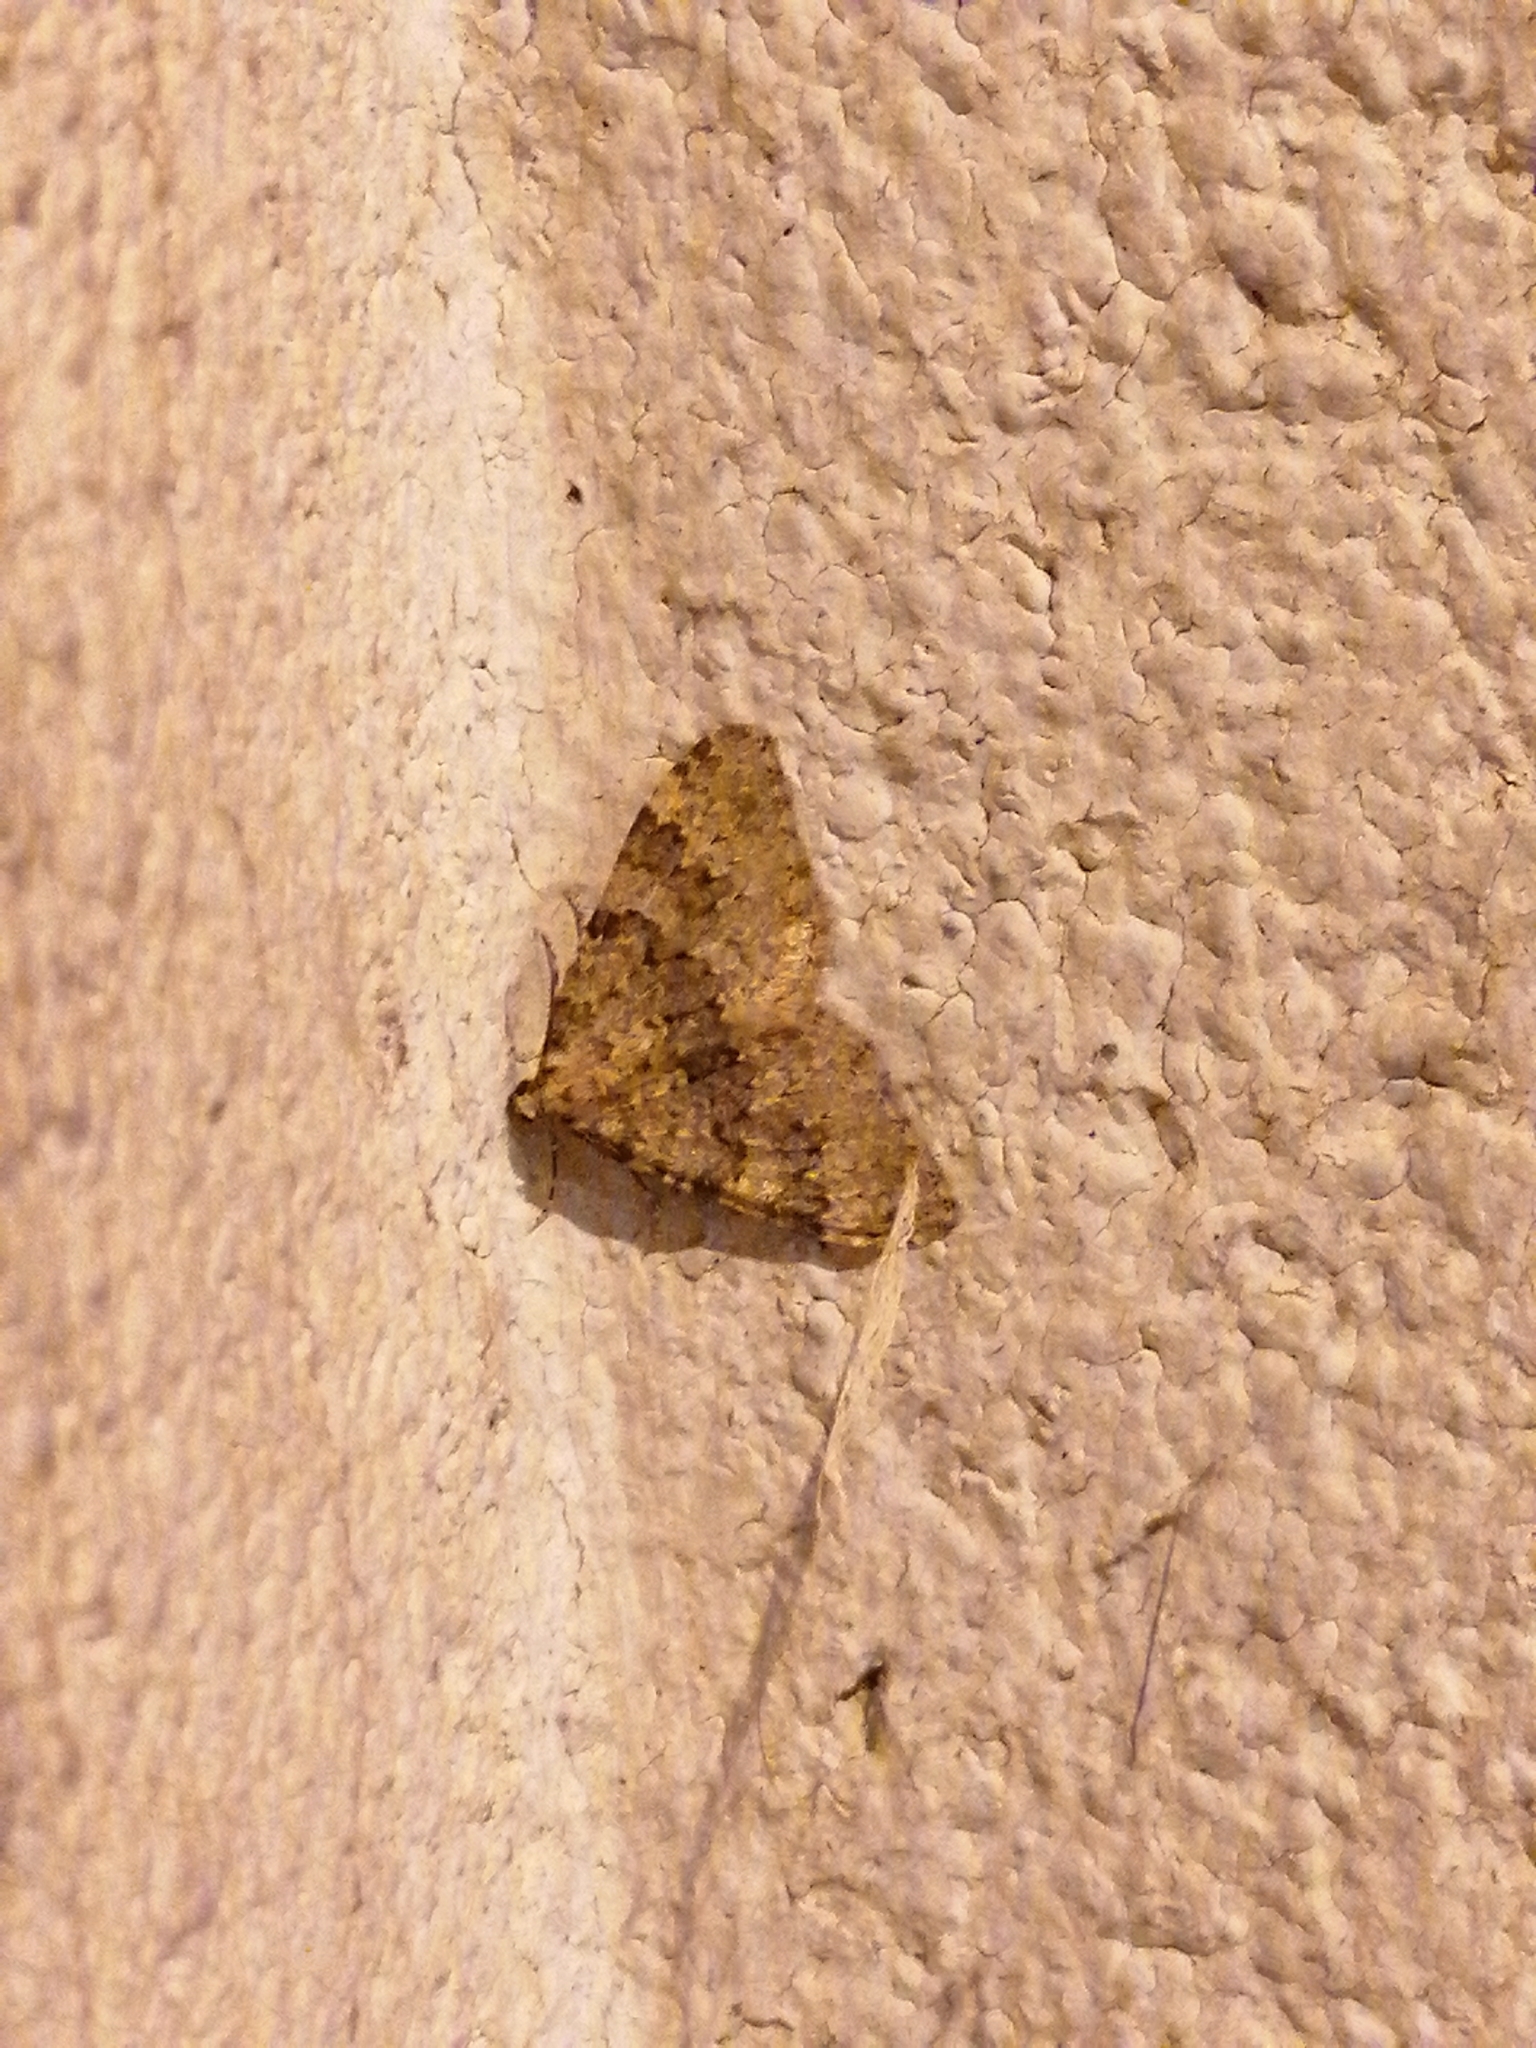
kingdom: Animalia
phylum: Arthropoda
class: Insecta
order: Lepidoptera
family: Geometridae
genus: Nebula
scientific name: Nebula ibericata
